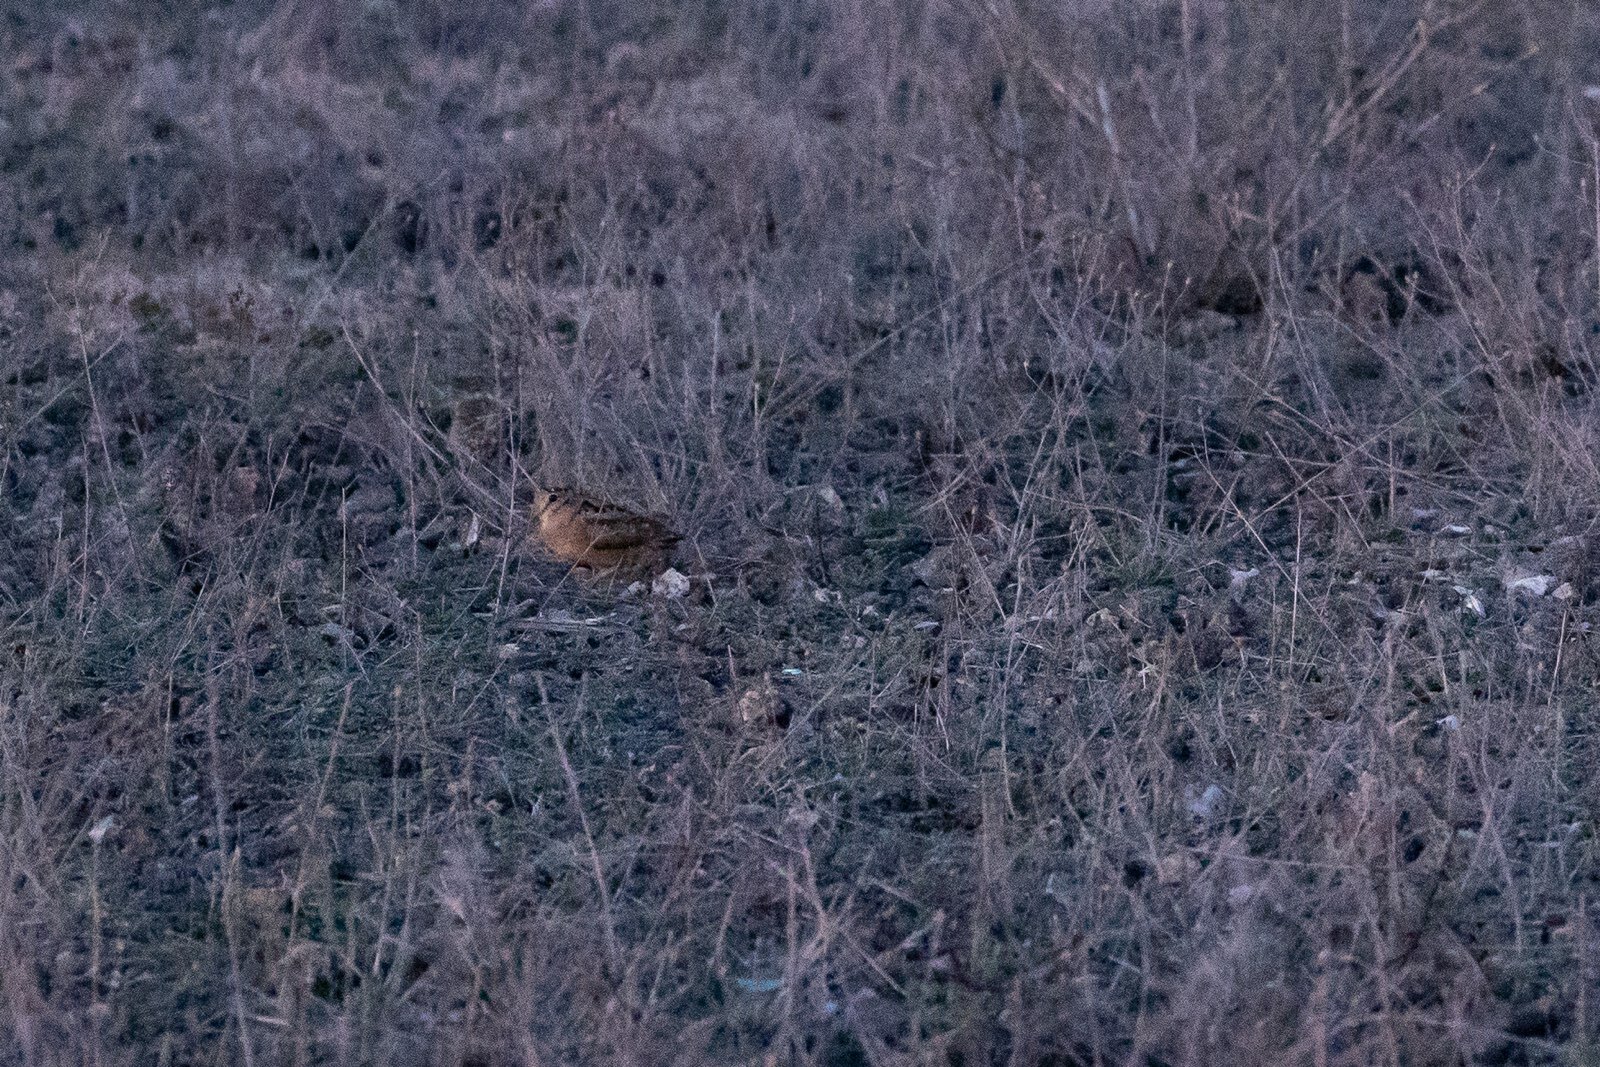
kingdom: Animalia
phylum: Chordata
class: Aves
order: Charadriiformes
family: Scolopacidae
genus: Scolopax
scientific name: Scolopax minor
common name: American woodcock
